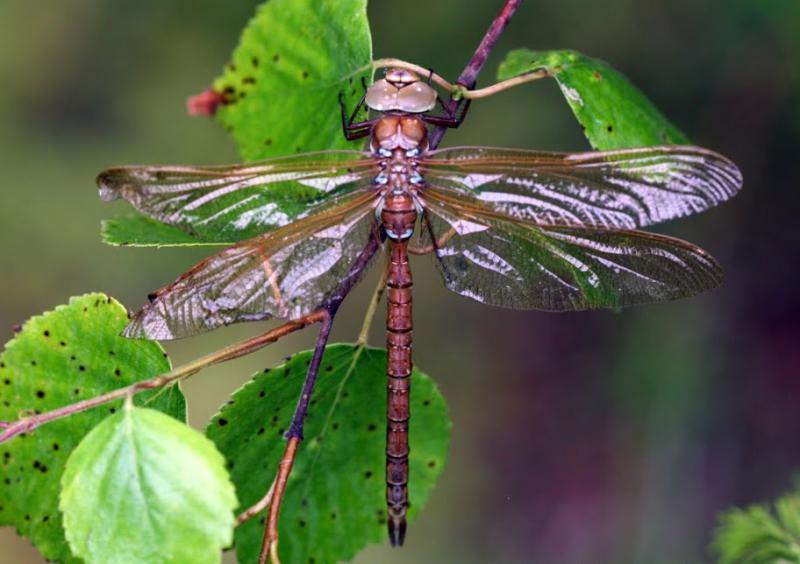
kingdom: Animalia
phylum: Arthropoda
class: Insecta
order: Odonata
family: Aeshnidae
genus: Aeshna
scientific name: Aeshna grandis
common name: Brown hawker
